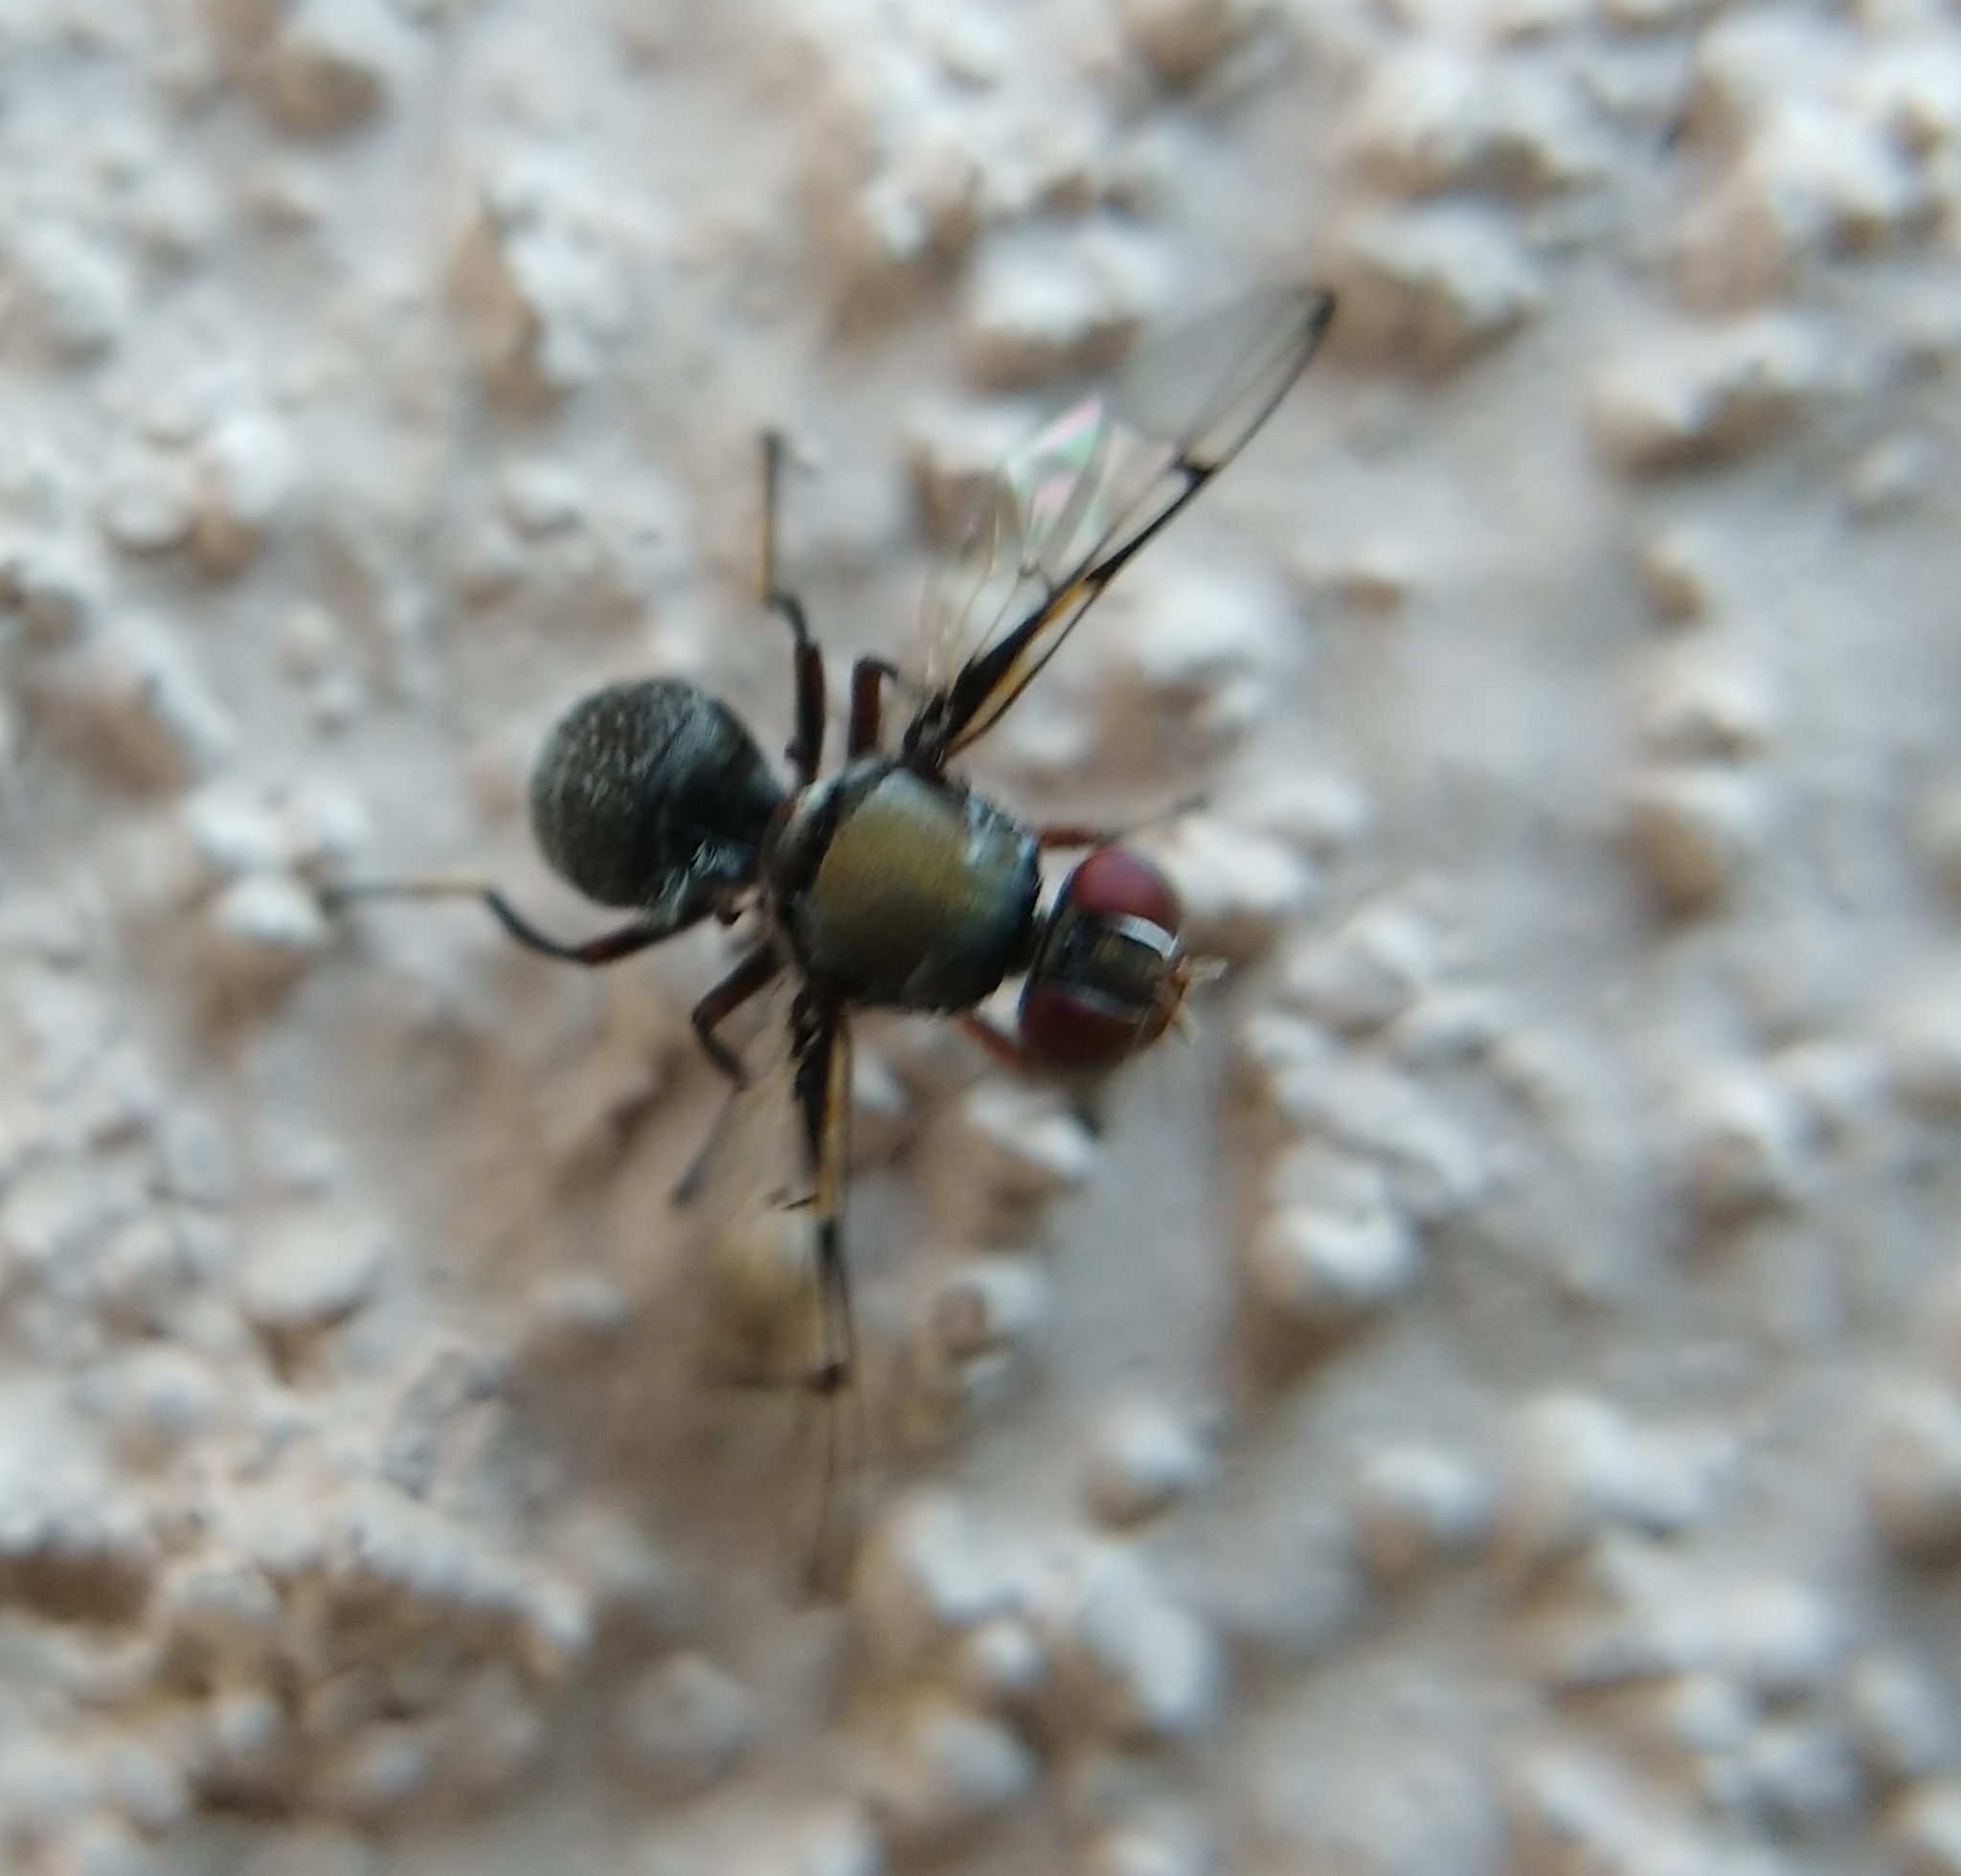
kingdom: Animalia
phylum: Arthropoda
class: Insecta
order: Diptera
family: Platystomatidae
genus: Pogonortalis
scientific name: Pogonortalis doclea
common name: Boatman fly
